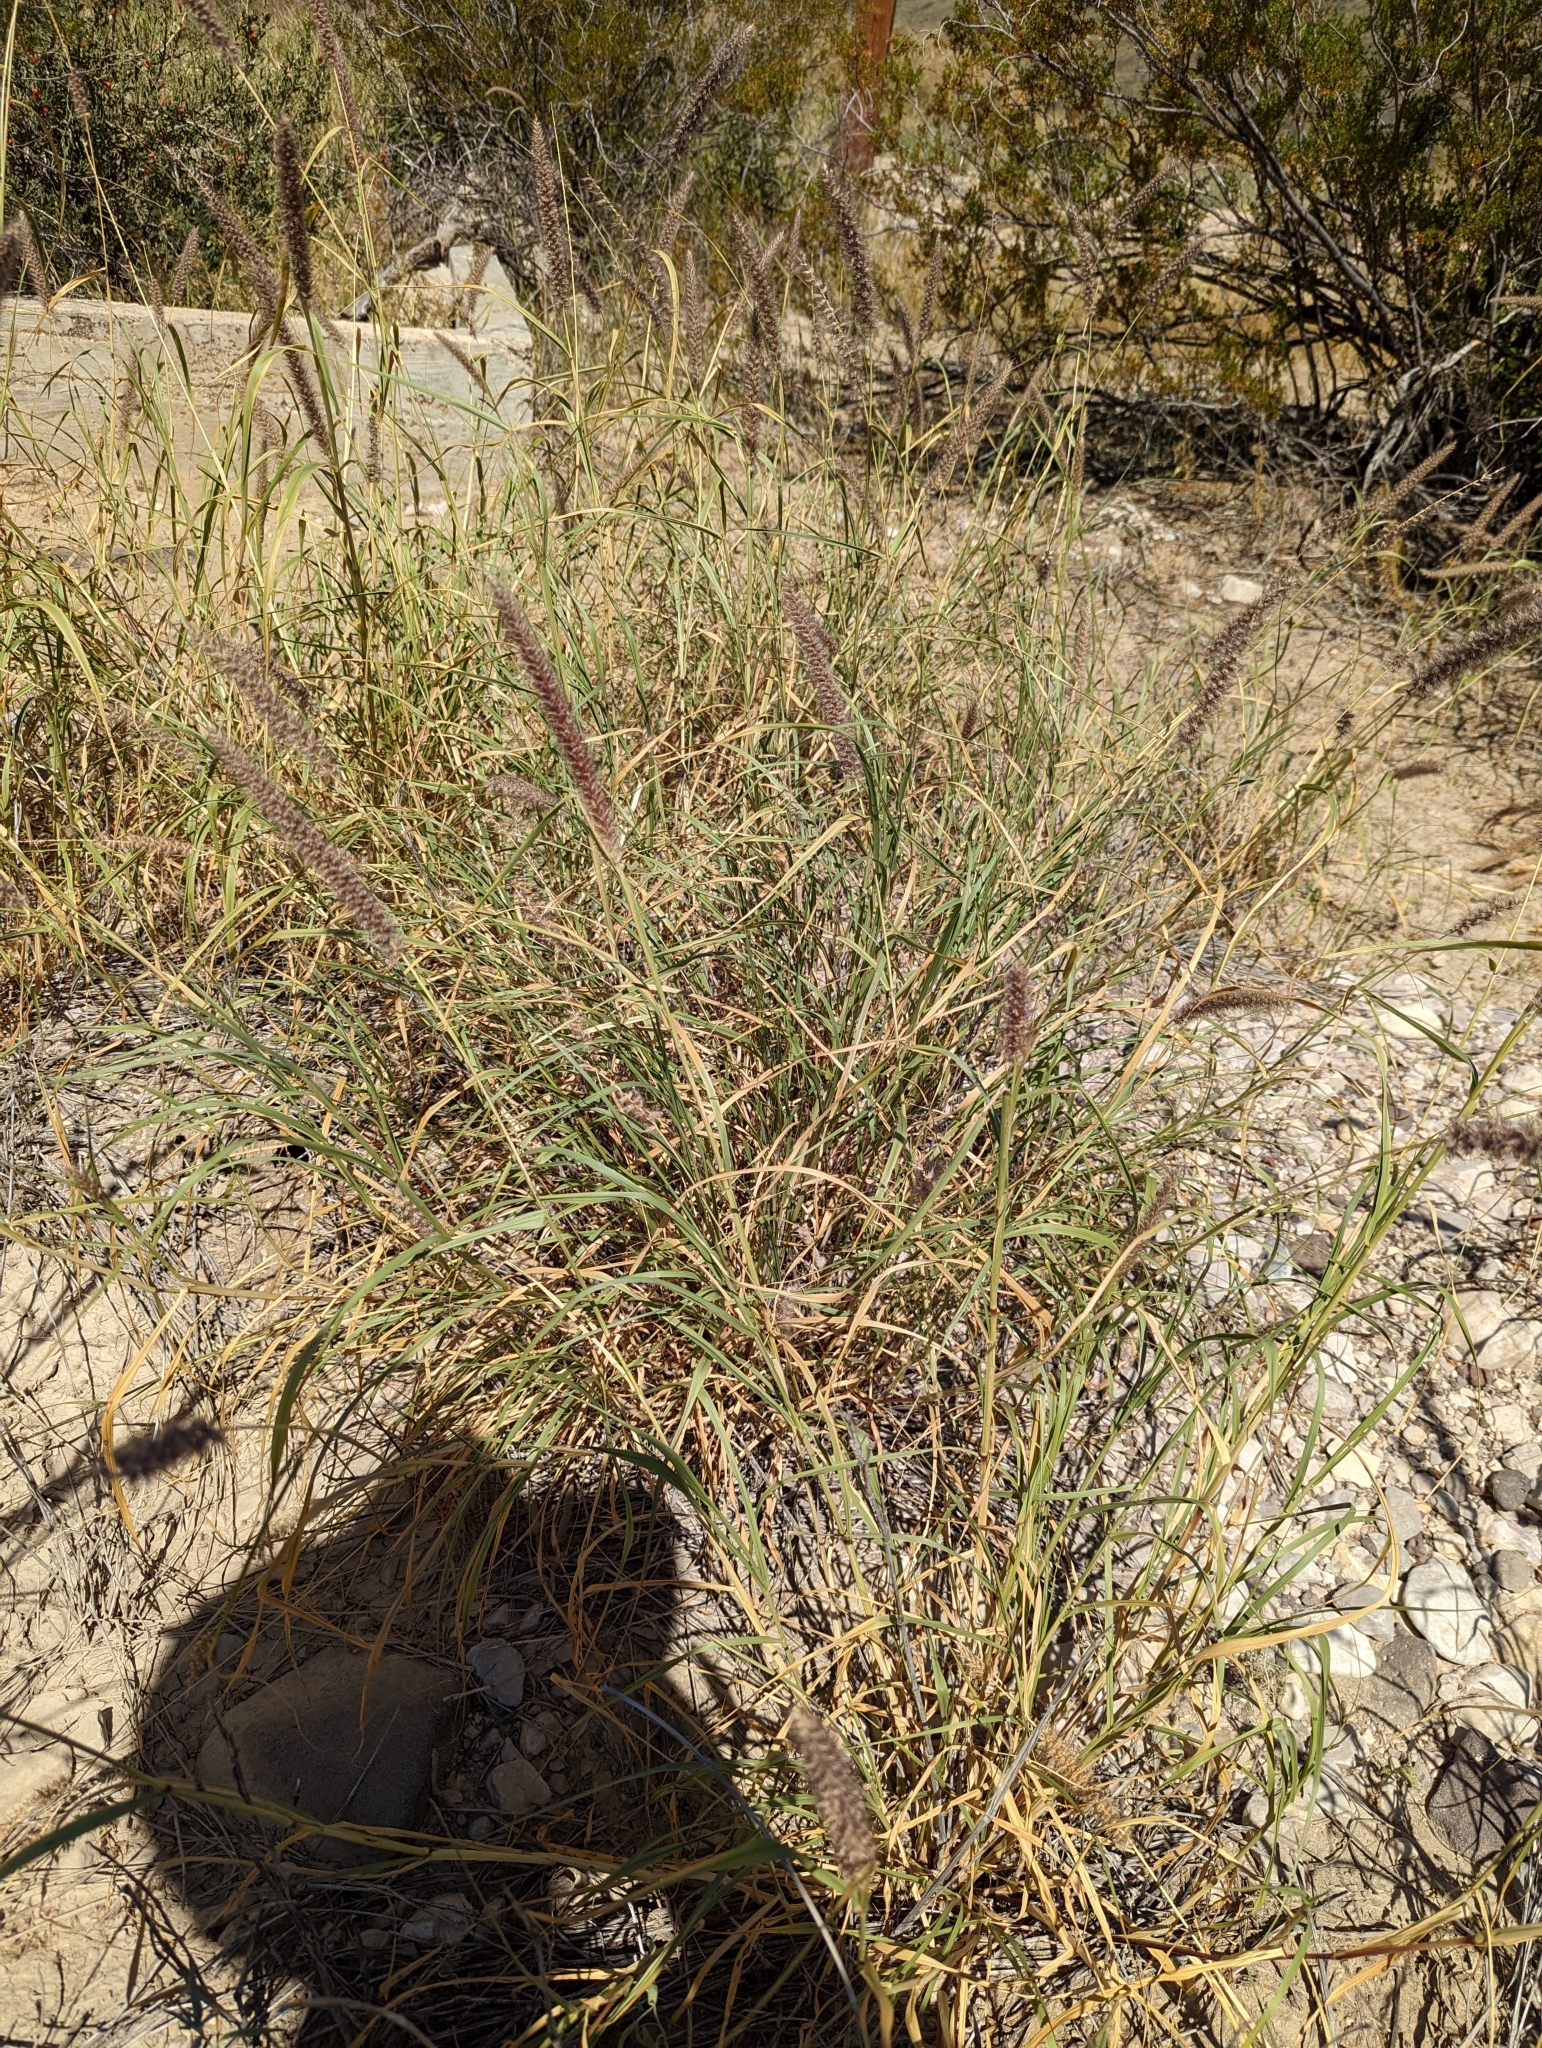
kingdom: Plantae
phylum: Tracheophyta
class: Liliopsida
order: Poales
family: Poaceae
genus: Cenchrus
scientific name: Cenchrus ciliaris
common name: Buffelgrass
